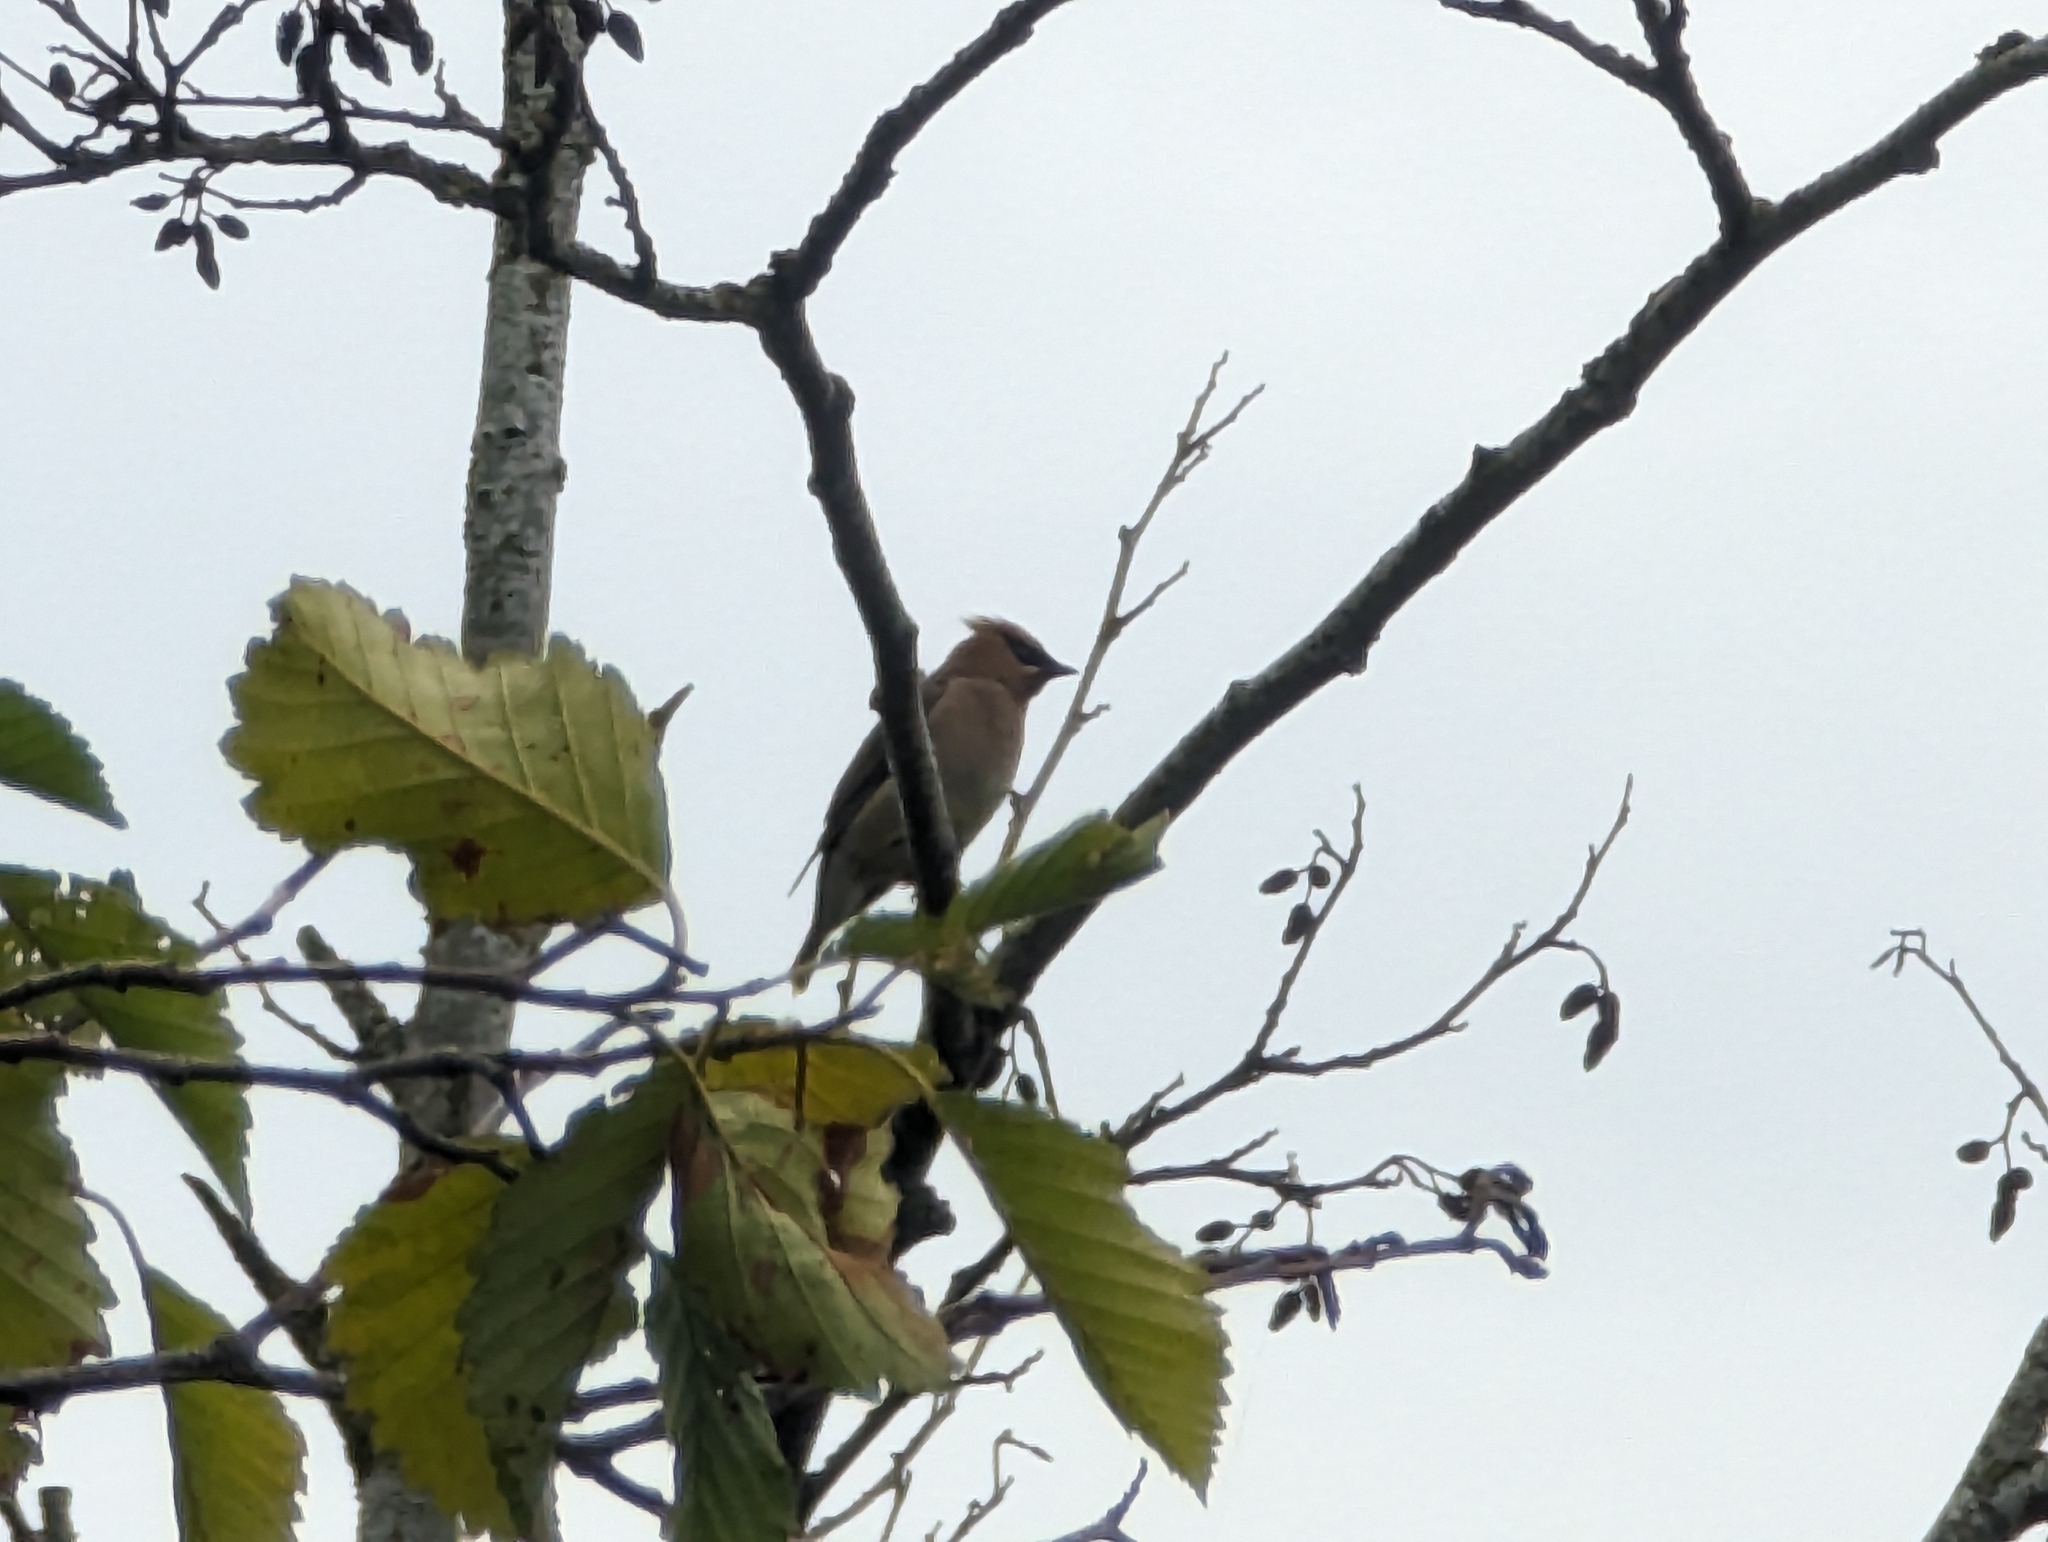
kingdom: Animalia
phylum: Chordata
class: Aves
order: Passeriformes
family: Bombycillidae
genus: Bombycilla
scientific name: Bombycilla cedrorum
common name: Cedar waxwing
